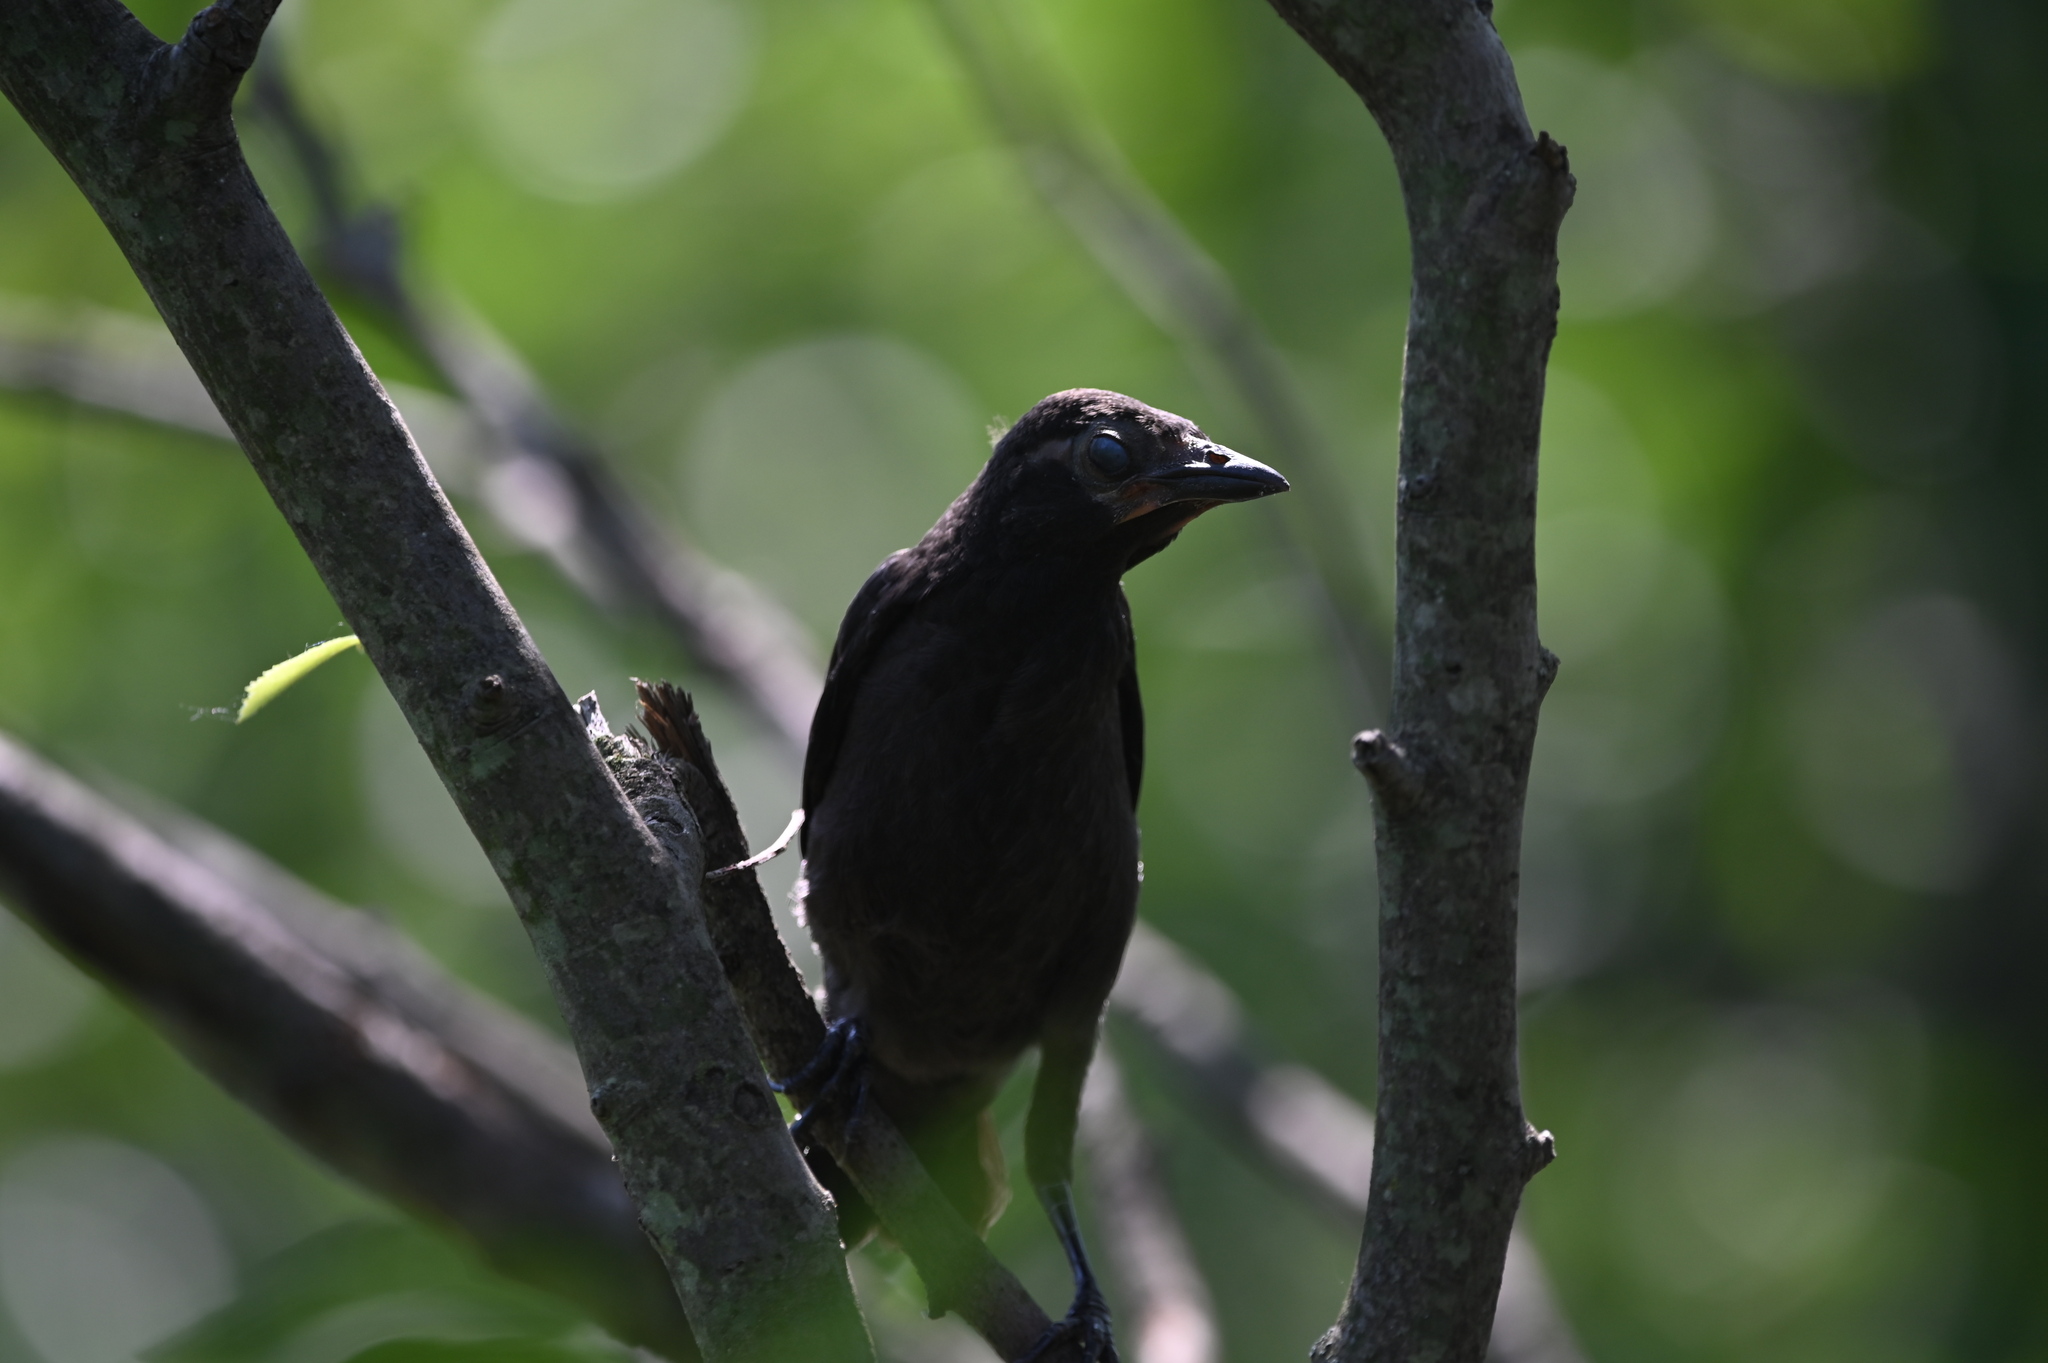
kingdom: Animalia
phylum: Chordata
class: Aves
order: Passeriformes
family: Icteridae
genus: Quiscalus
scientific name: Quiscalus quiscula
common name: Common grackle
